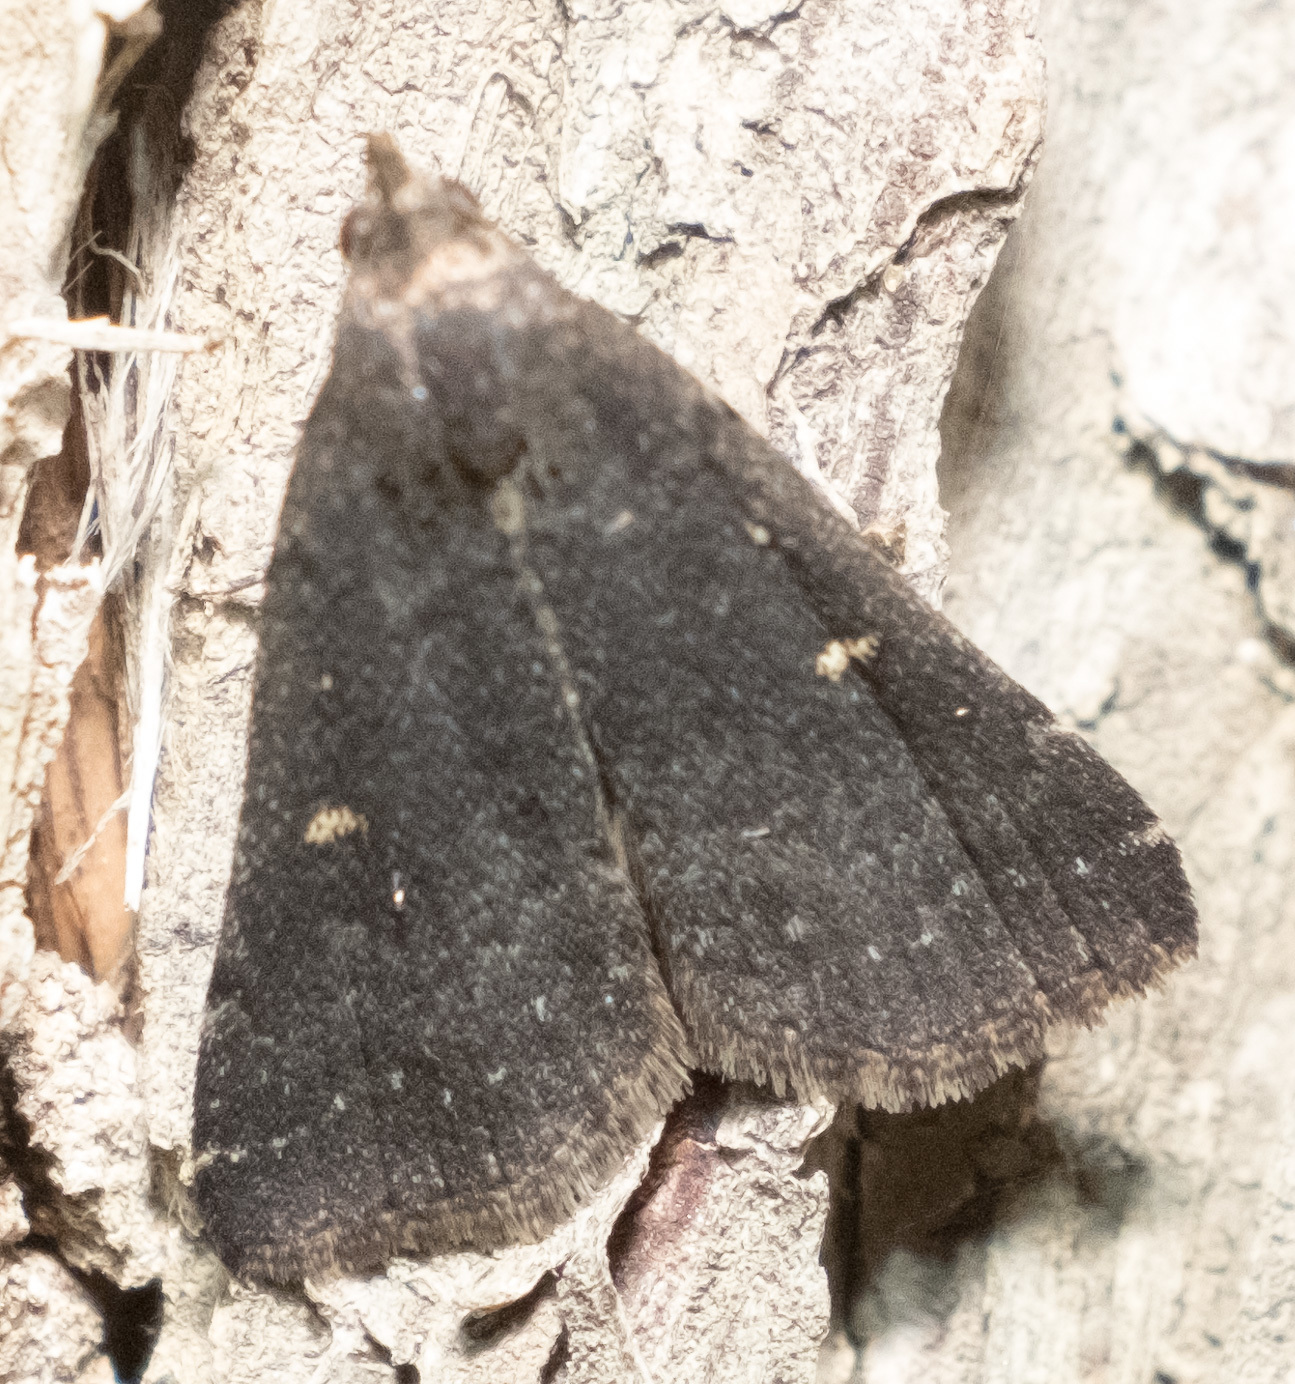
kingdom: Animalia
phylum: Arthropoda
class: Insecta
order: Lepidoptera
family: Erebidae
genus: Tetanolita
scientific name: Tetanolita mynesalis
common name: Smoky tetanolita moth
